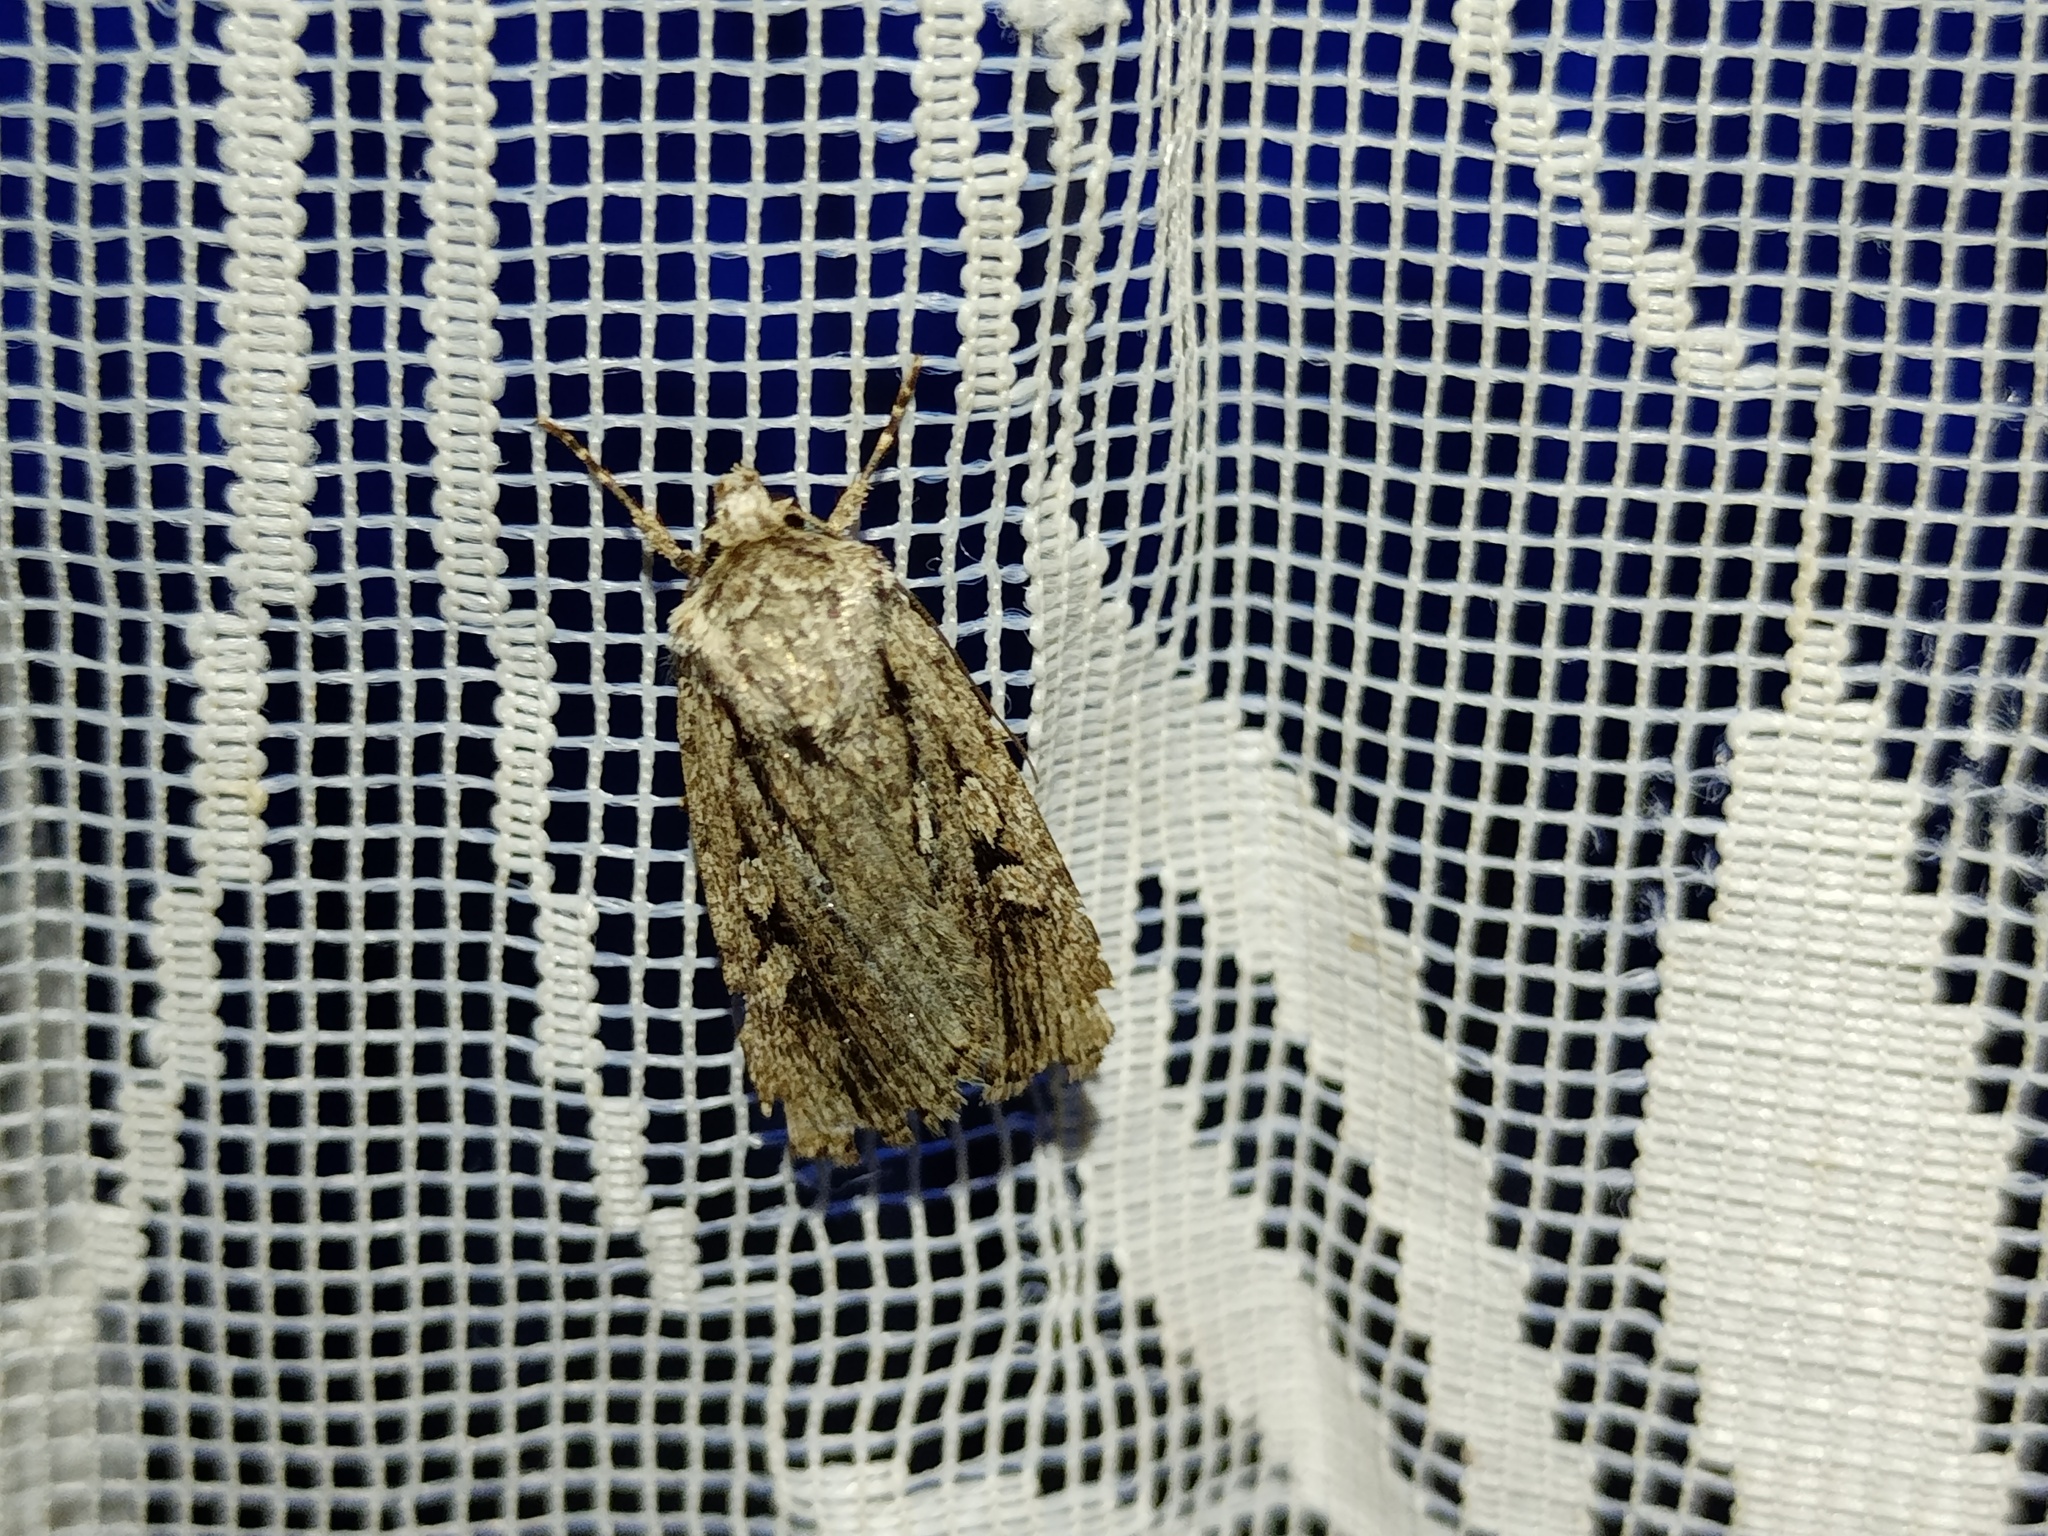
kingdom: Animalia
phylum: Arthropoda
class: Insecta
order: Lepidoptera
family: Noctuidae
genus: Yigoga
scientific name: Yigoga signifera
